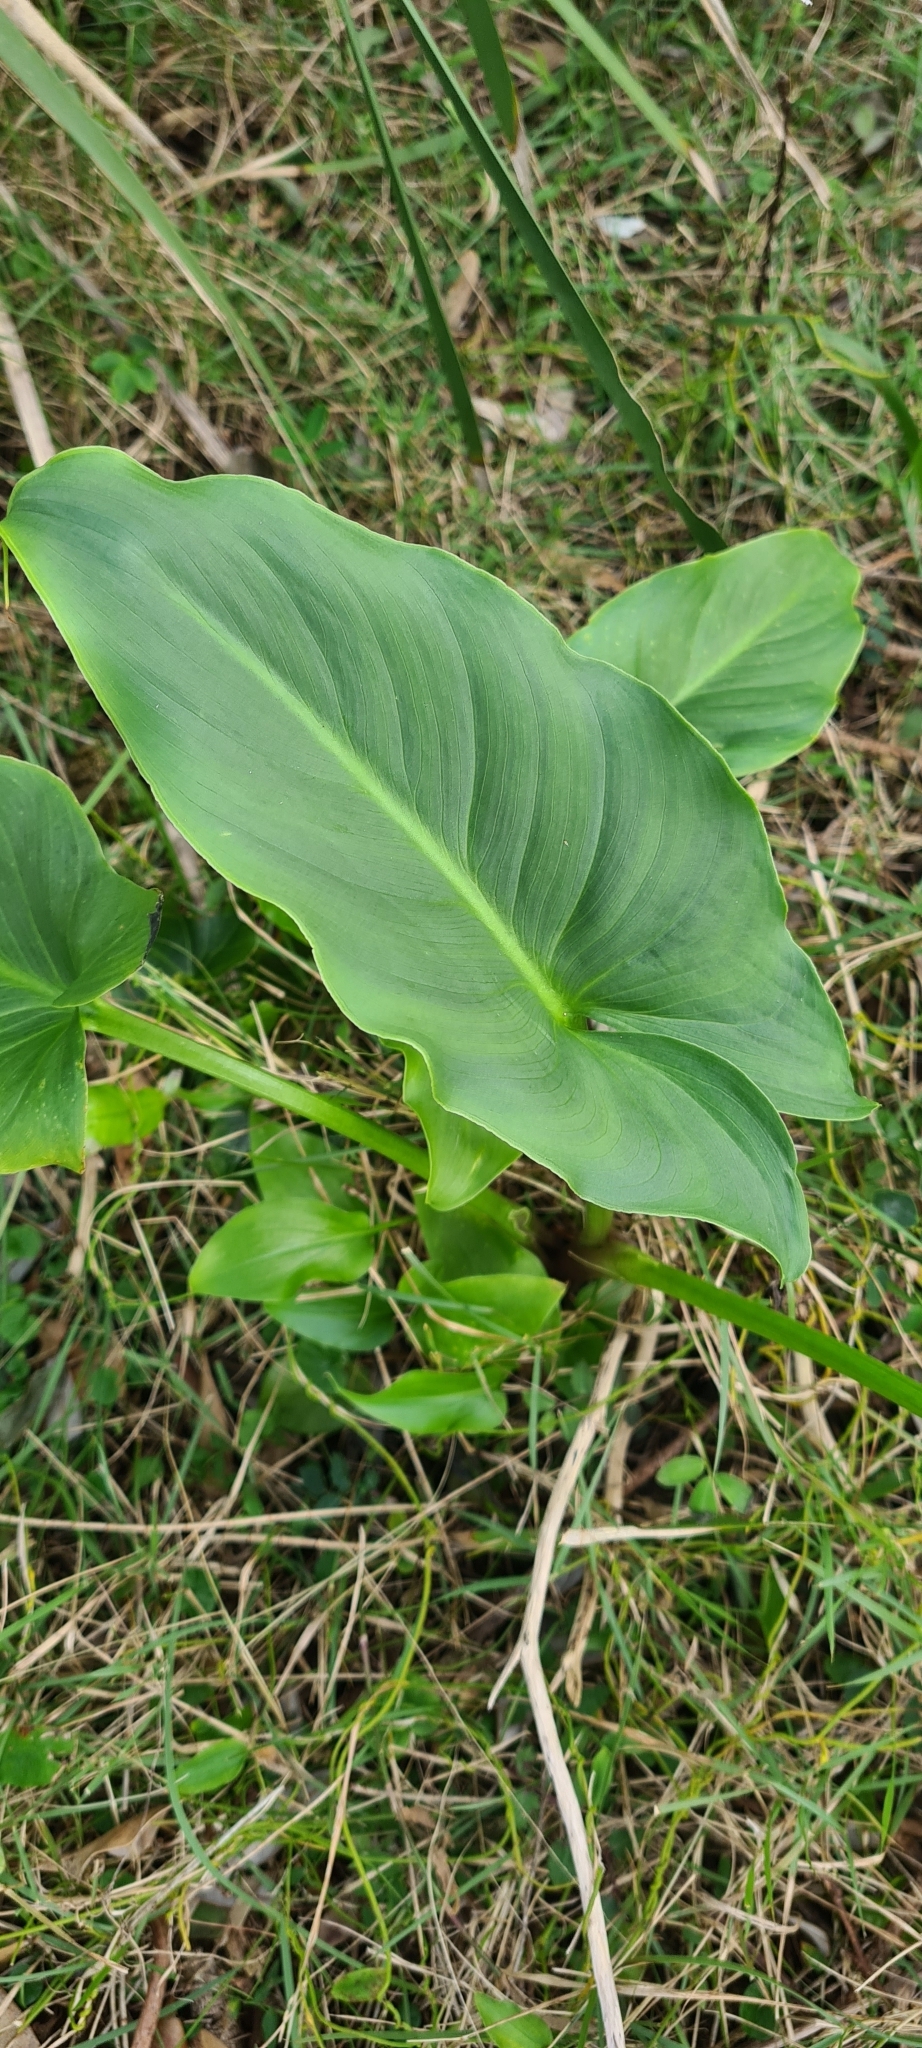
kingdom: Plantae
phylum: Tracheophyta
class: Liliopsida
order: Alismatales
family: Araceae
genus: Zantedeschia
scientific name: Zantedeschia aethiopica
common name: Altar-lily
